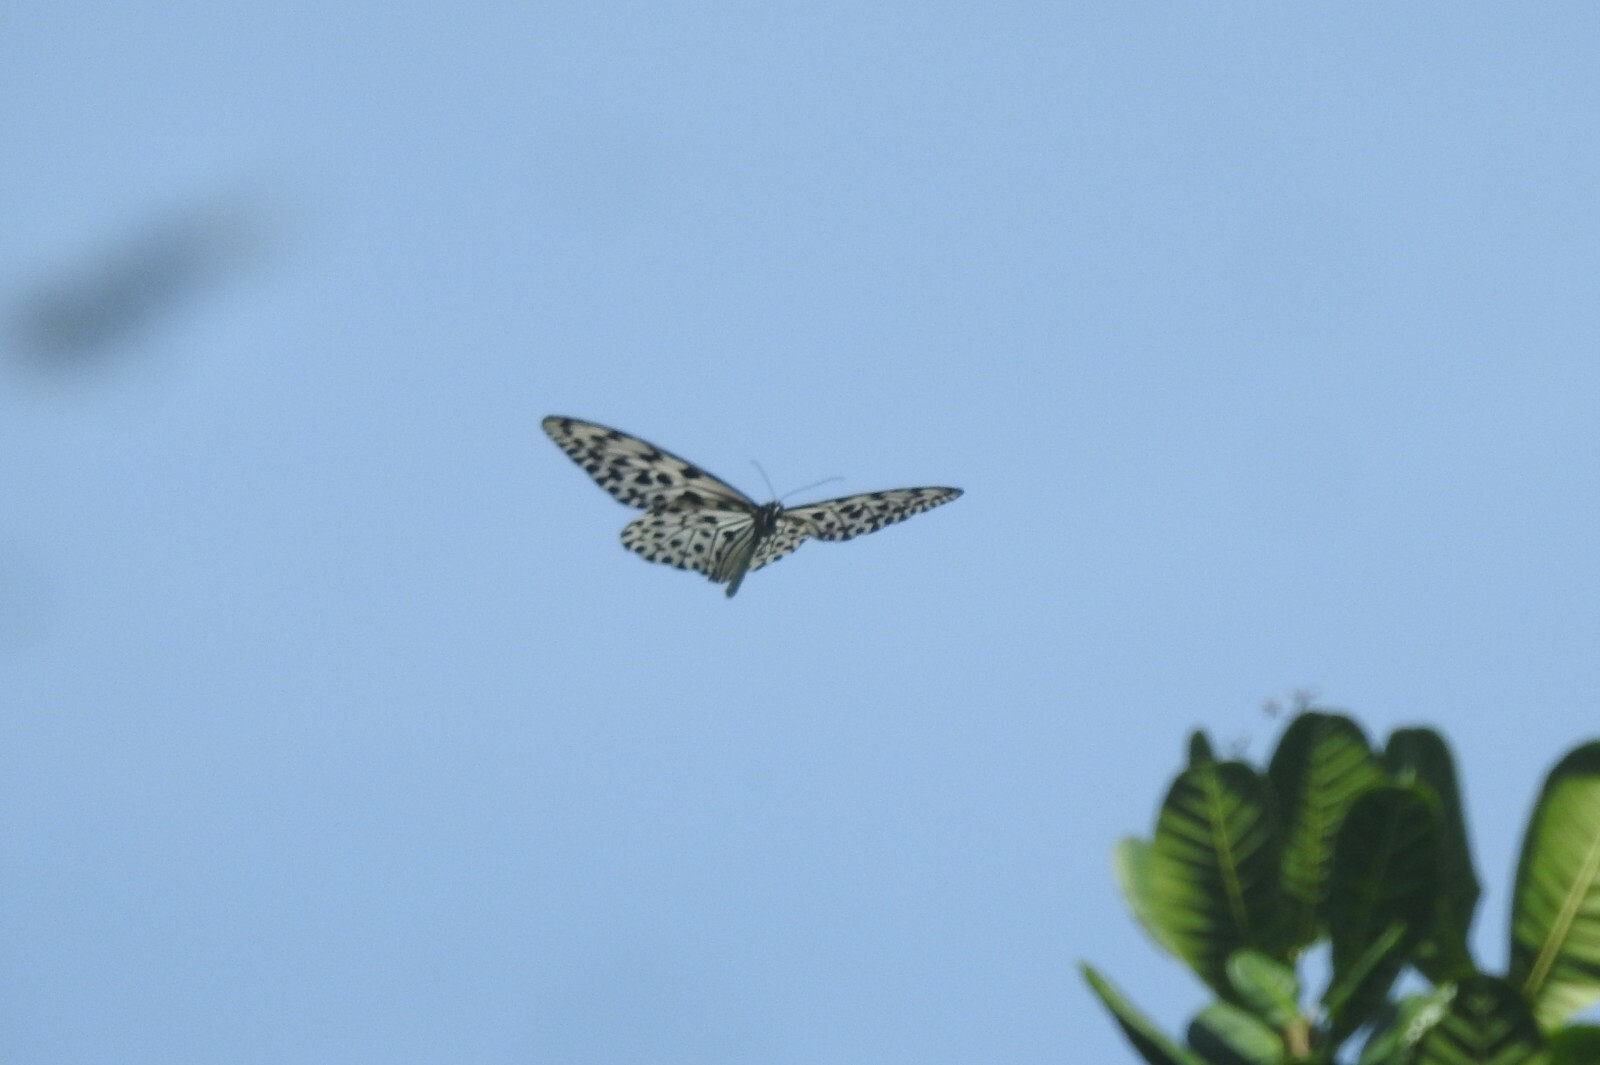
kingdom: Animalia
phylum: Arthropoda
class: Insecta
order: Lepidoptera
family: Nymphalidae
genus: Idea
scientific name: Idea malabarica
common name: Malabar tree-nymph
